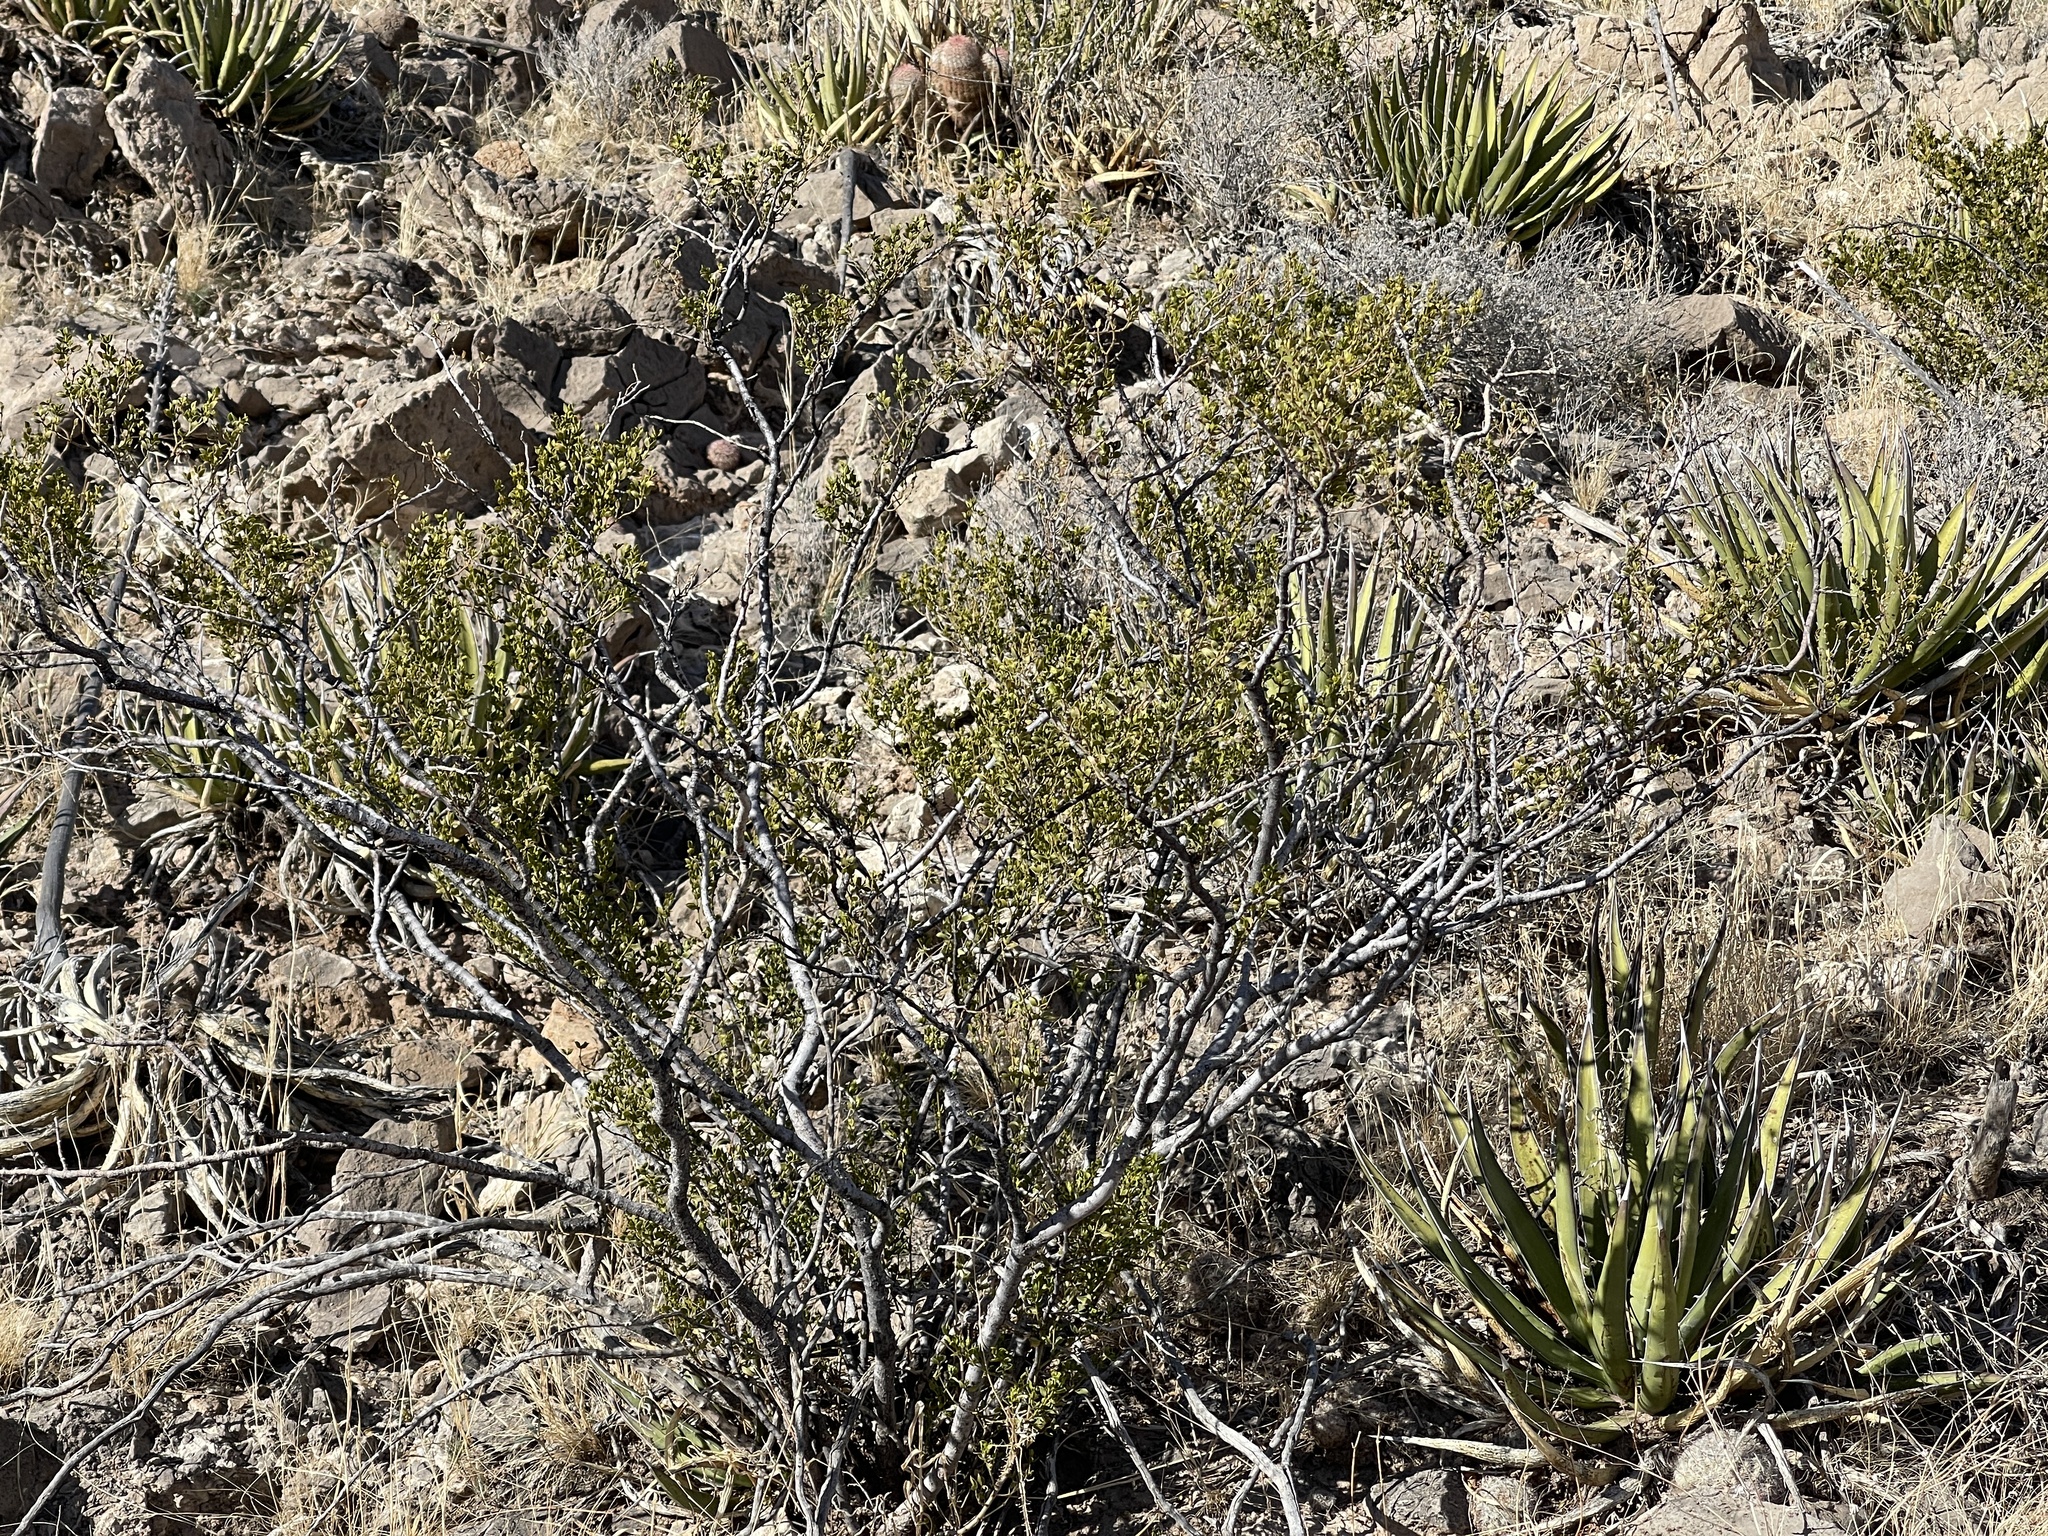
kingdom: Plantae
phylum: Tracheophyta
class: Magnoliopsida
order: Zygophyllales
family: Zygophyllaceae
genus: Larrea
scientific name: Larrea tridentata
